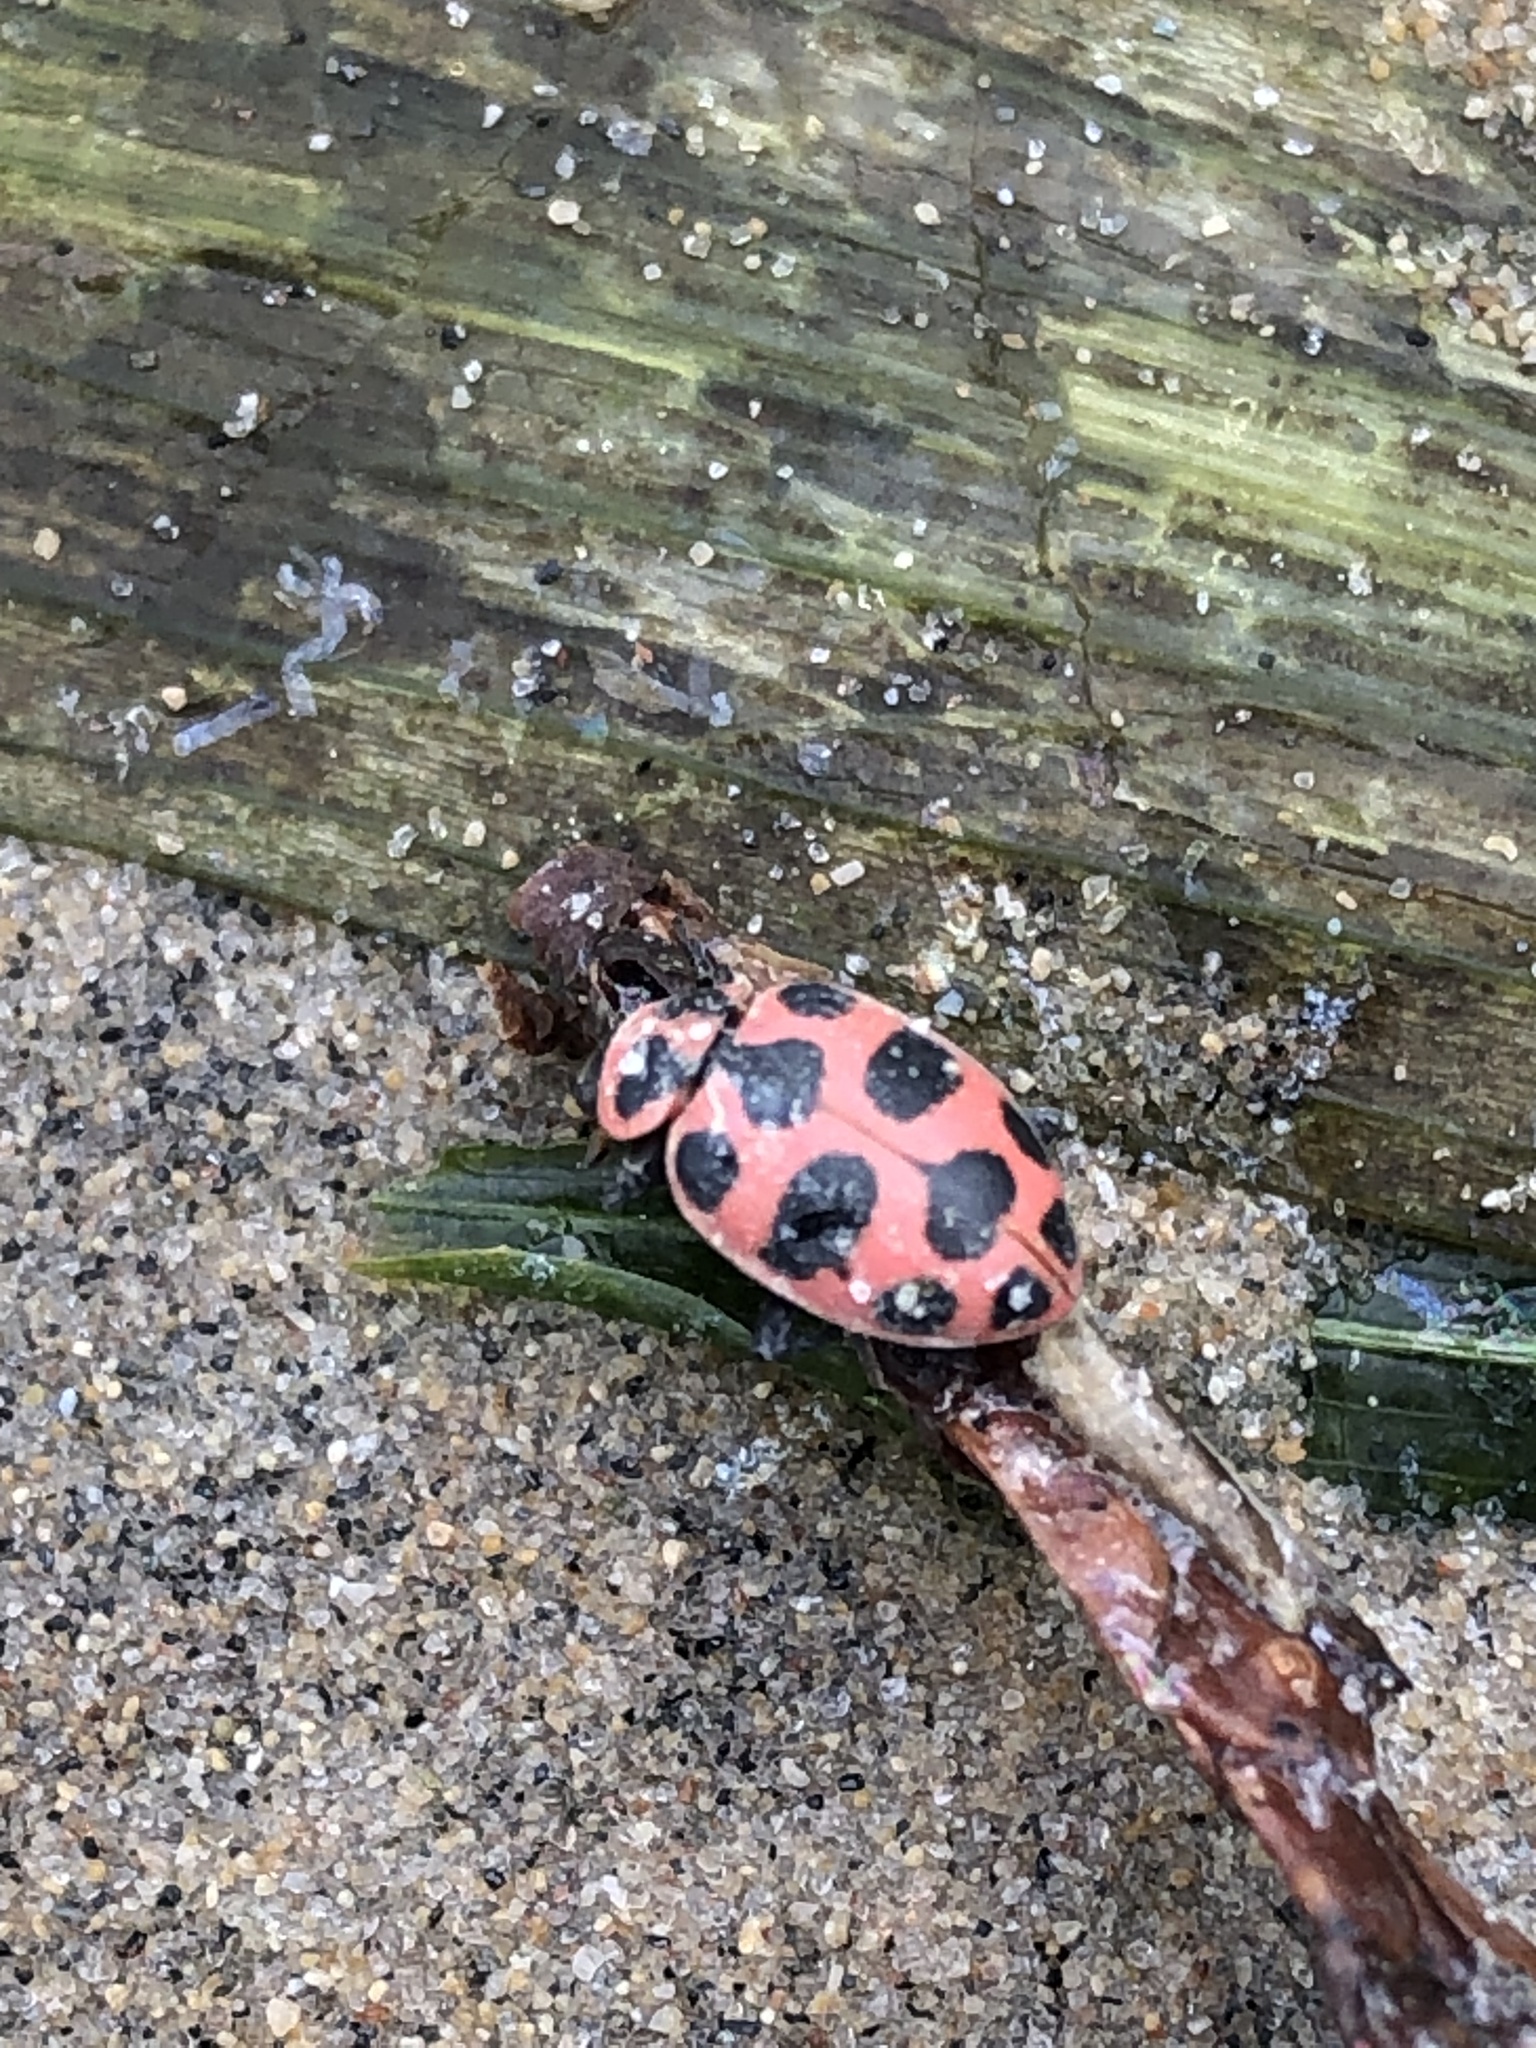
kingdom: Animalia
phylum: Arthropoda
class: Insecta
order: Coleoptera
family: Coccinellidae
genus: Coleomegilla
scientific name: Coleomegilla maculata
